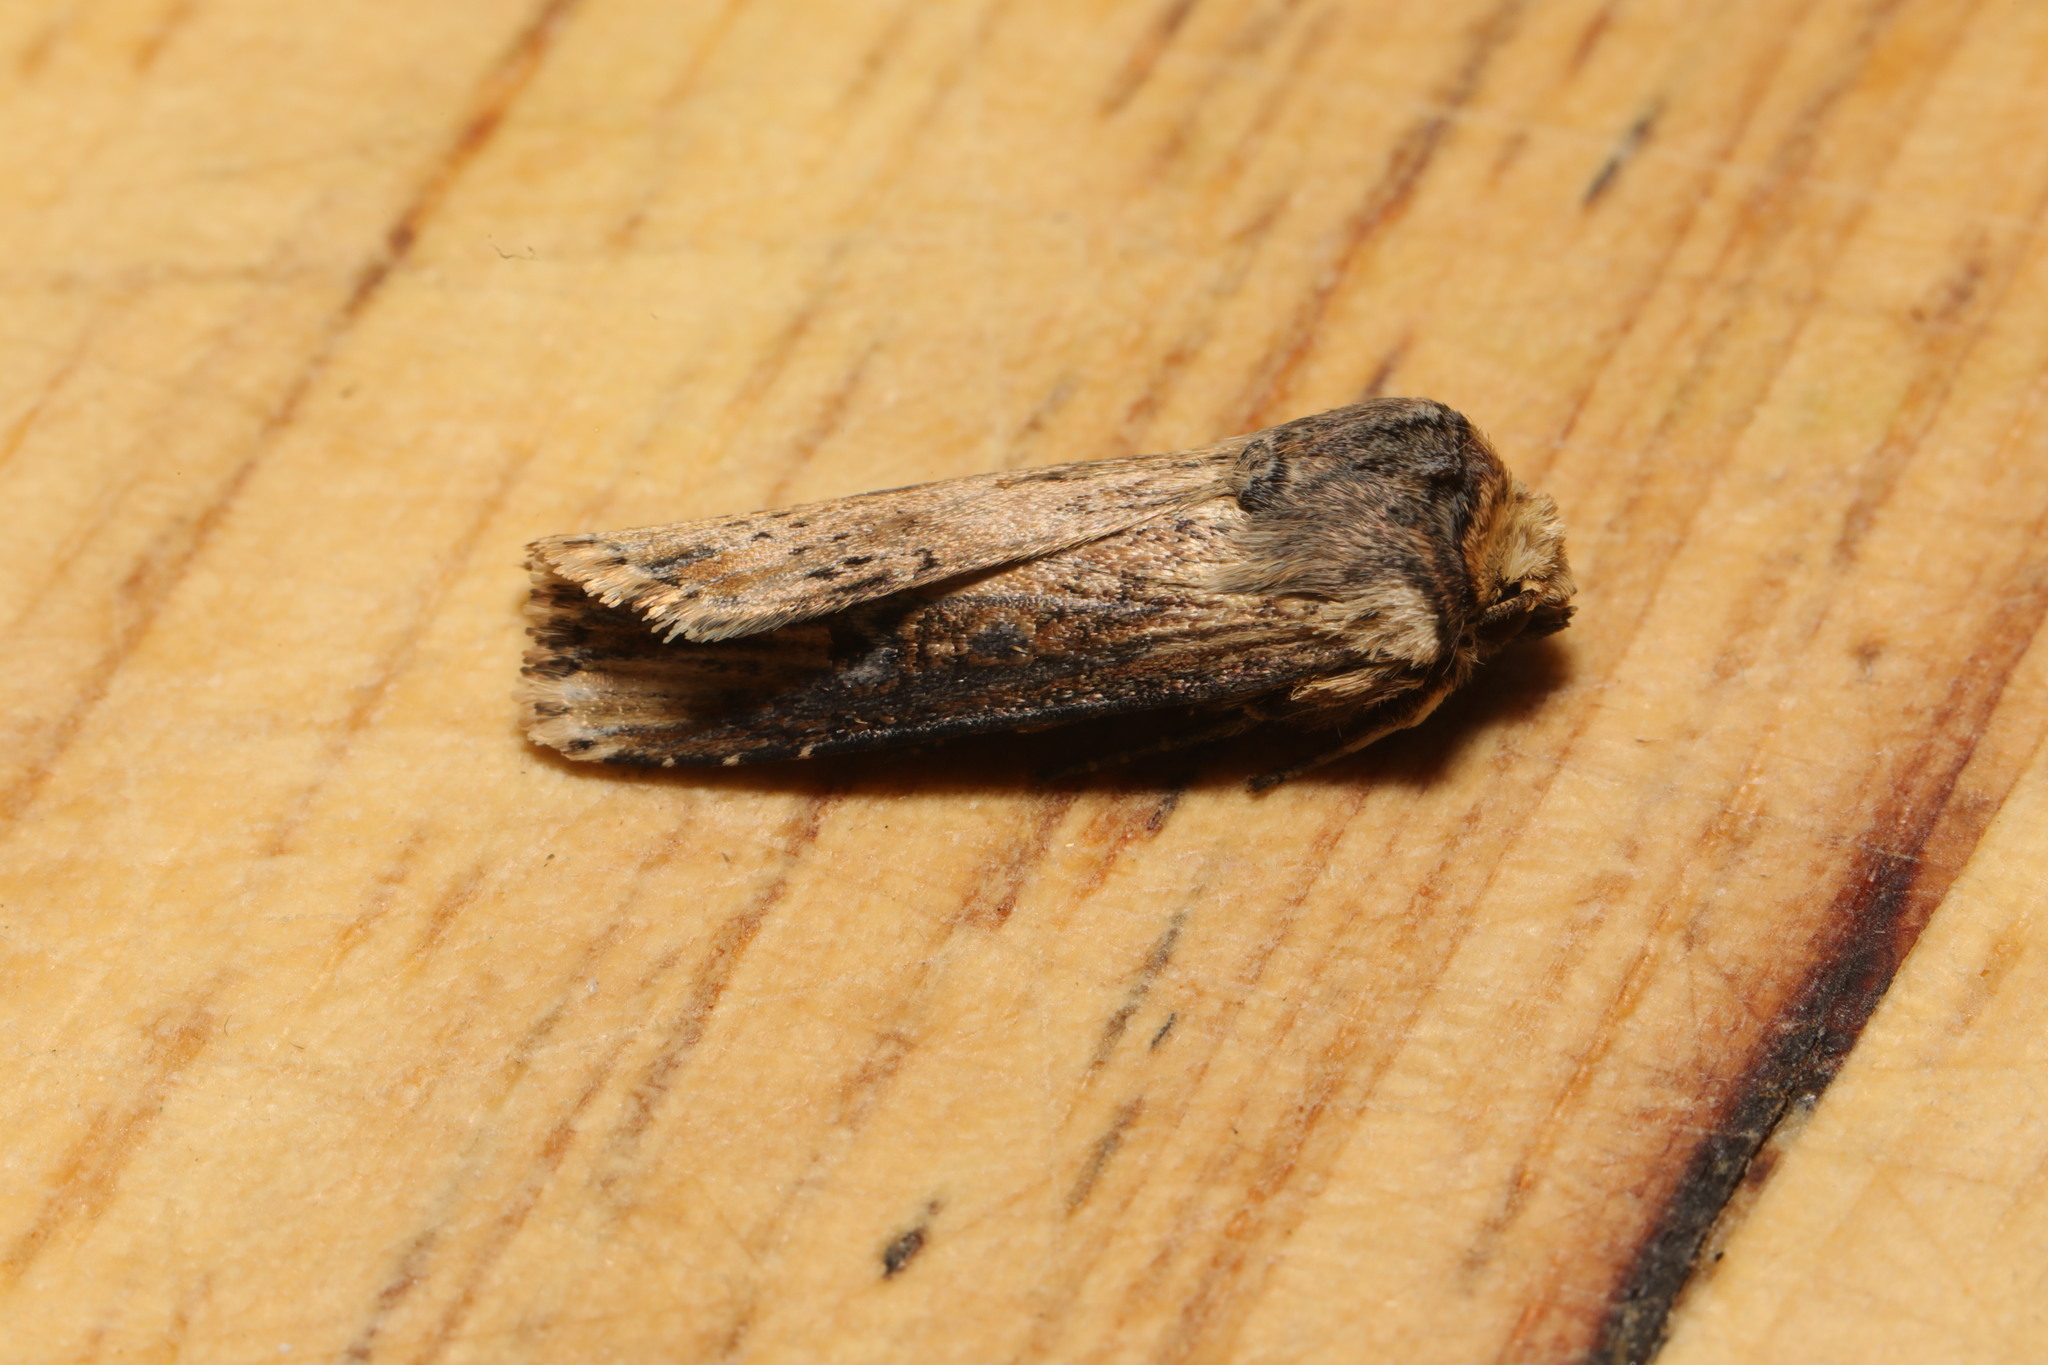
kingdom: Animalia
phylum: Arthropoda
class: Insecta
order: Lepidoptera
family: Noctuidae
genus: Axylia
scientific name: Axylia putris
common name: Flame
